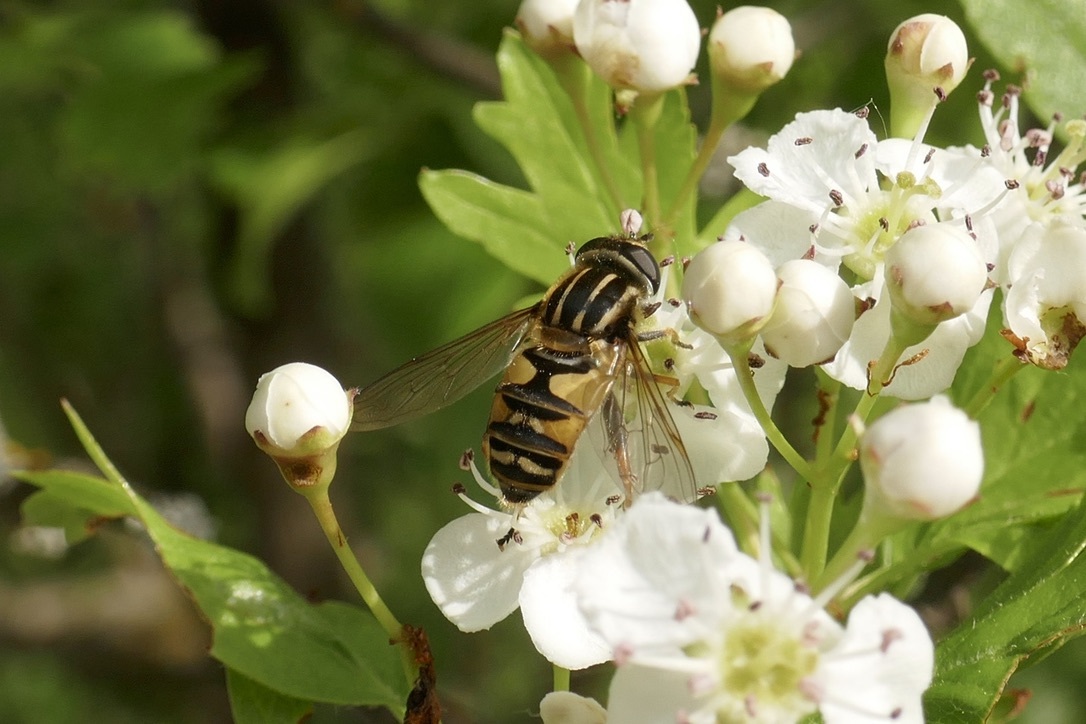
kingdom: Animalia
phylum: Arthropoda
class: Insecta
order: Diptera
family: Syrphidae
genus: Helophilus
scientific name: Helophilus pendulus
